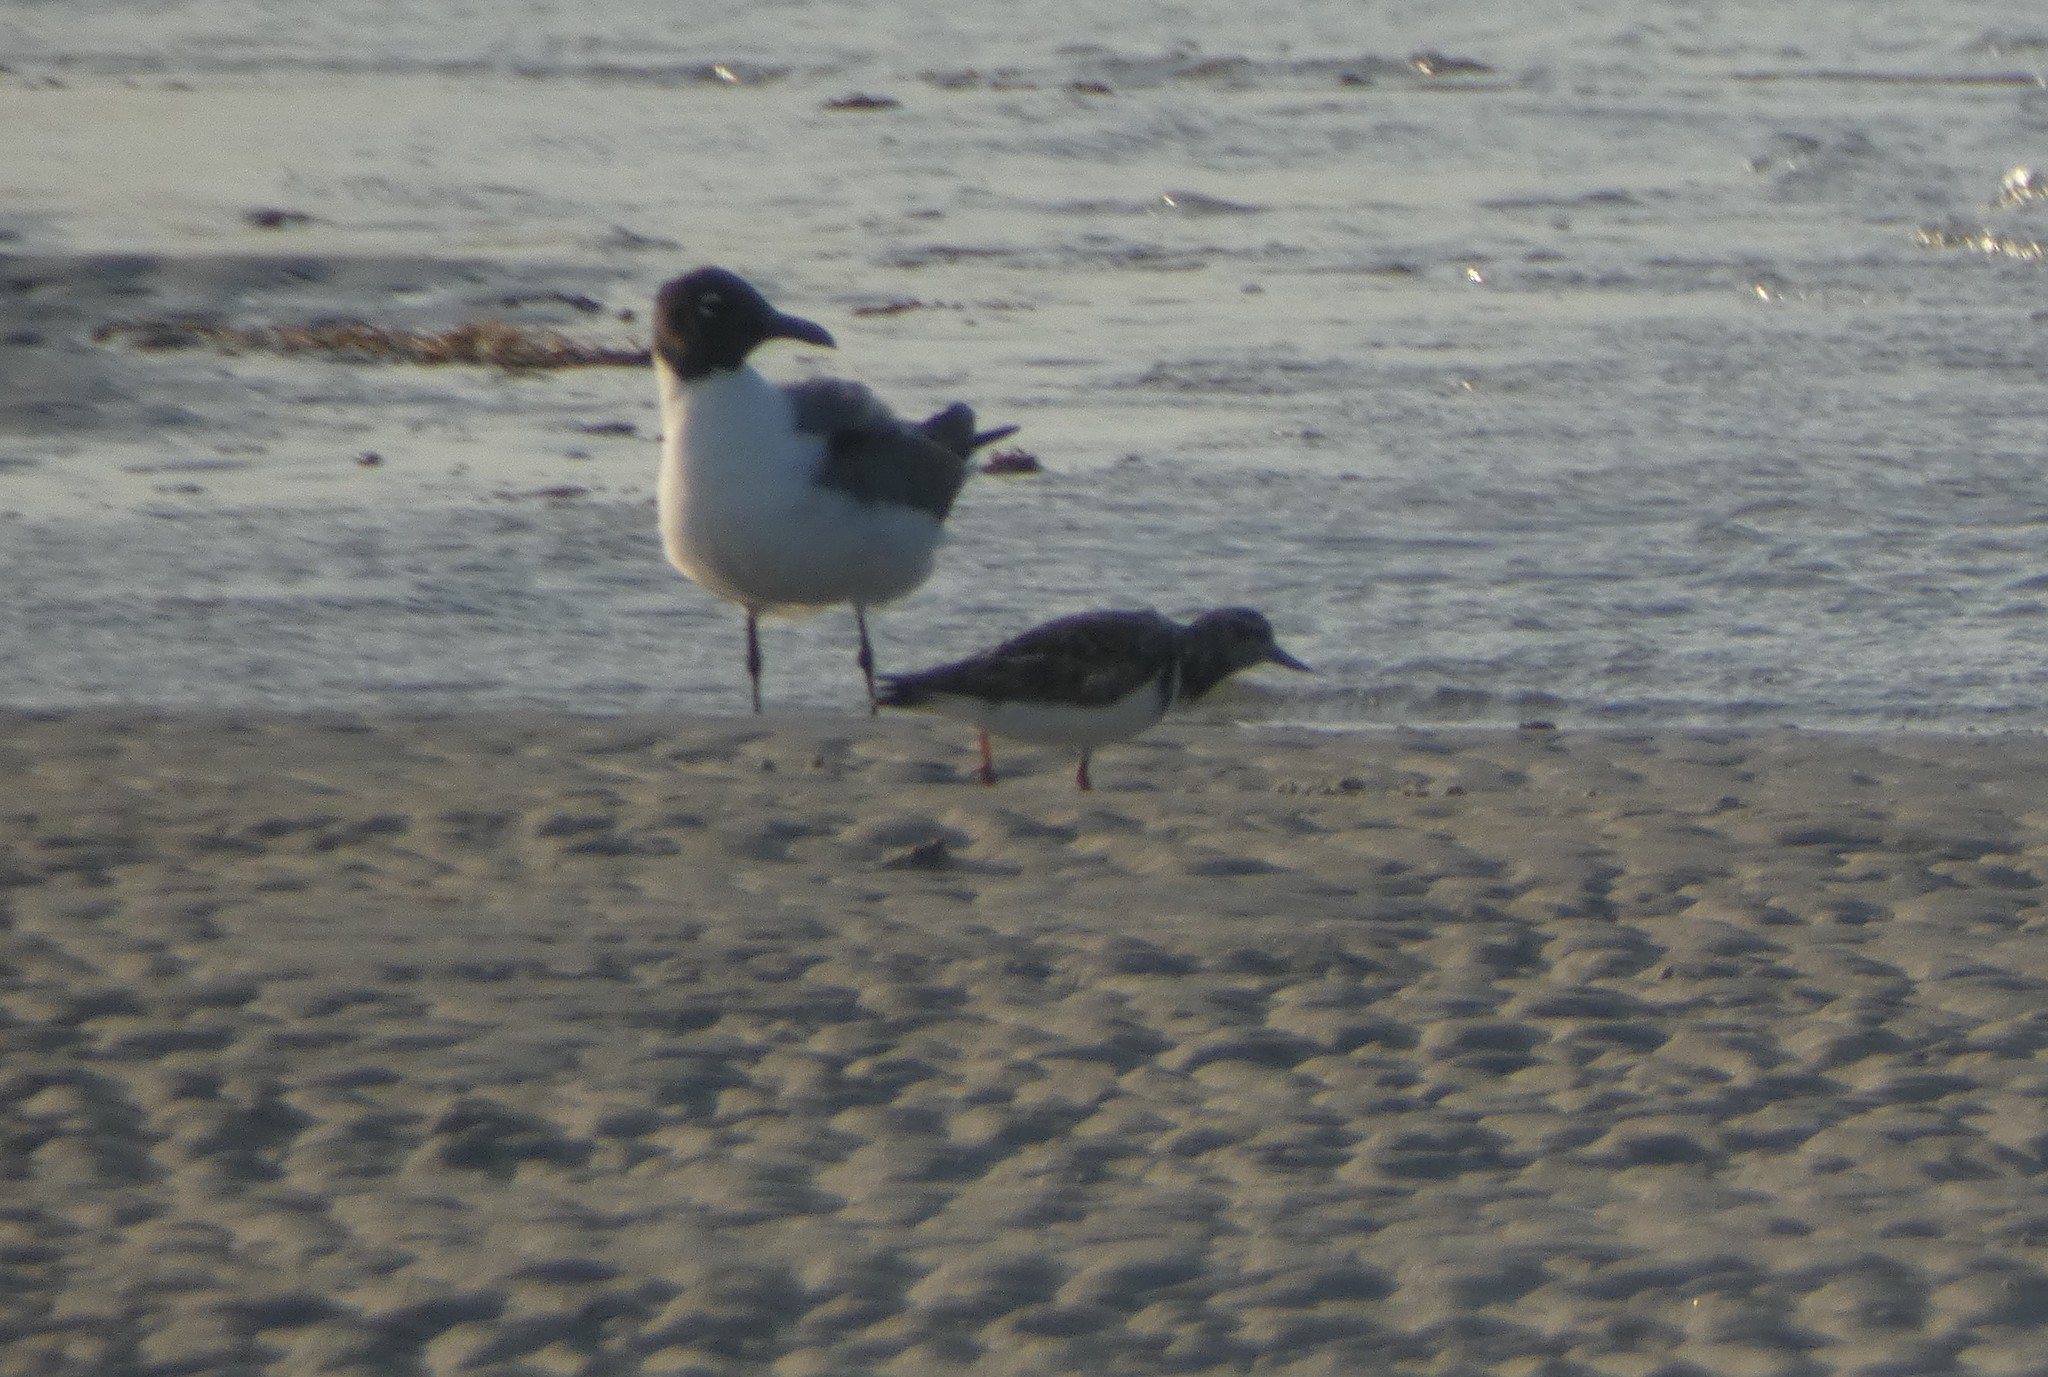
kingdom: Animalia
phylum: Chordata
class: Aves
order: Charadriiformes
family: Scolopacidae
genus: Arenaria
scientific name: Arenaria interpres
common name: Ruddy turnstone
